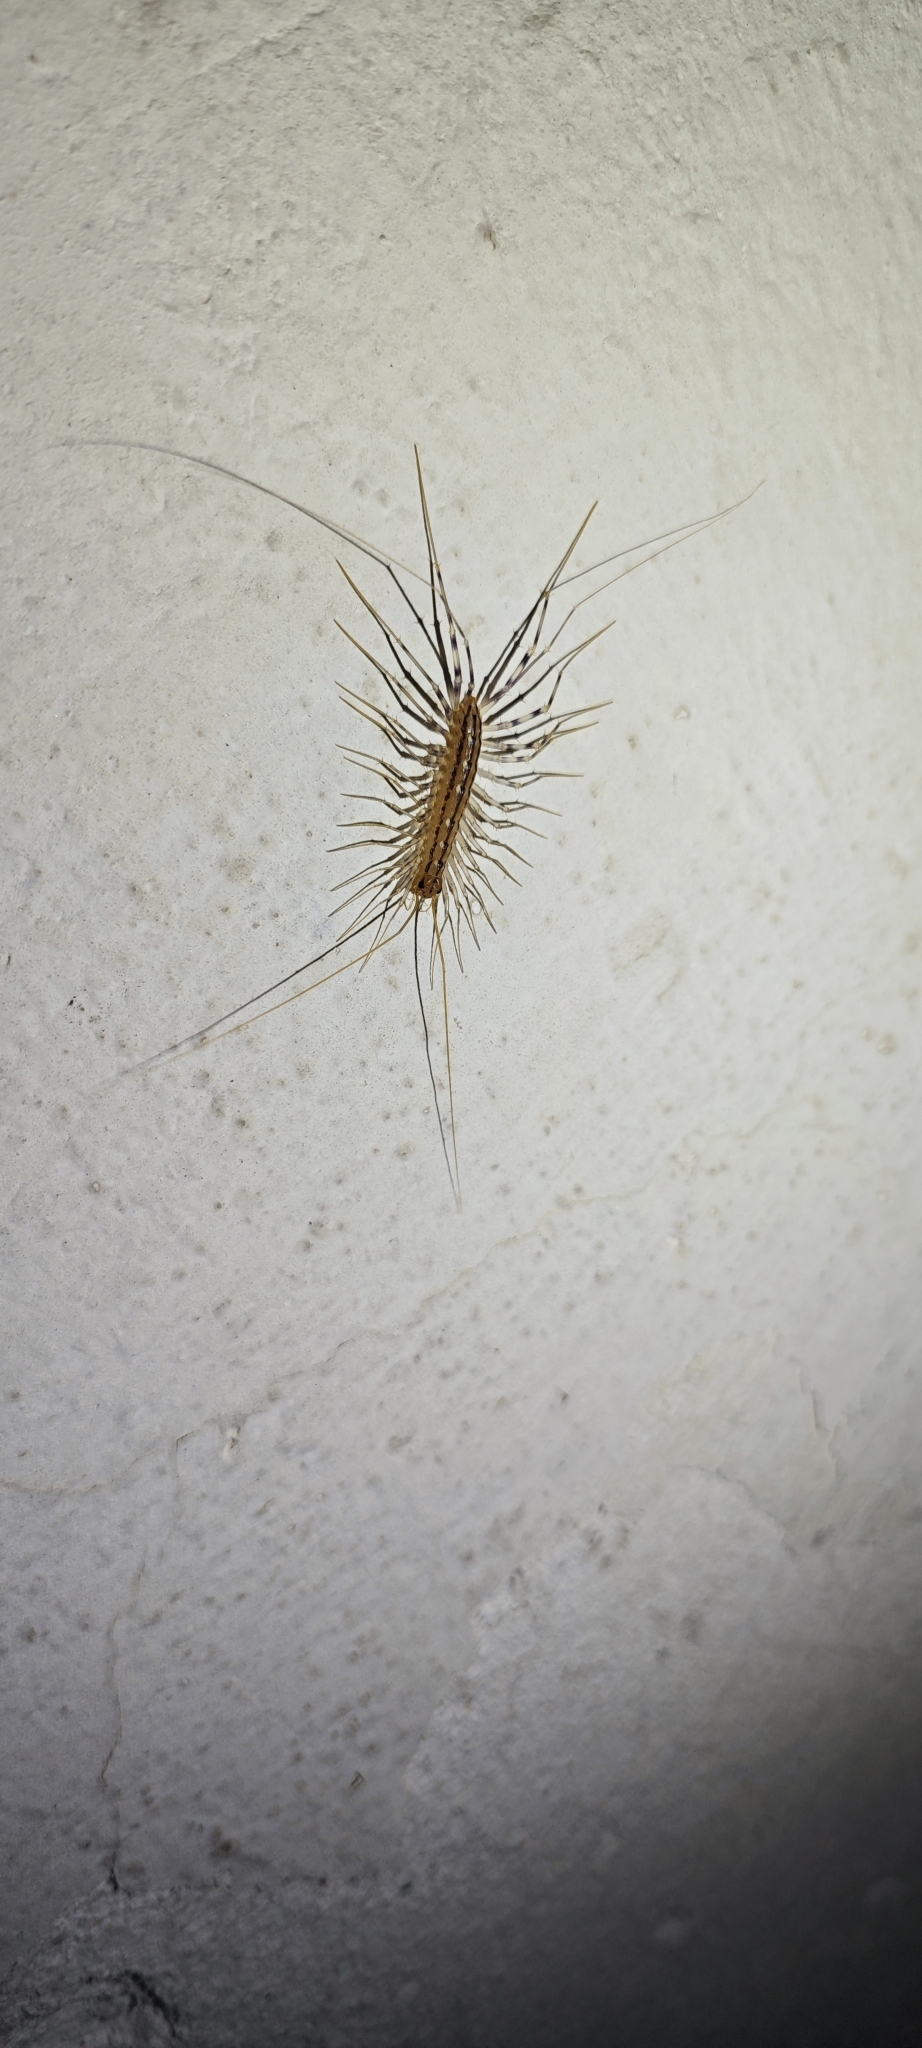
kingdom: Animalia
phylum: Arthropoda
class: Chilopoda
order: Scutigeromorpha
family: Scutigeridae
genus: Scutigera
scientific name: Scutigera coleoptrata
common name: House centipede
